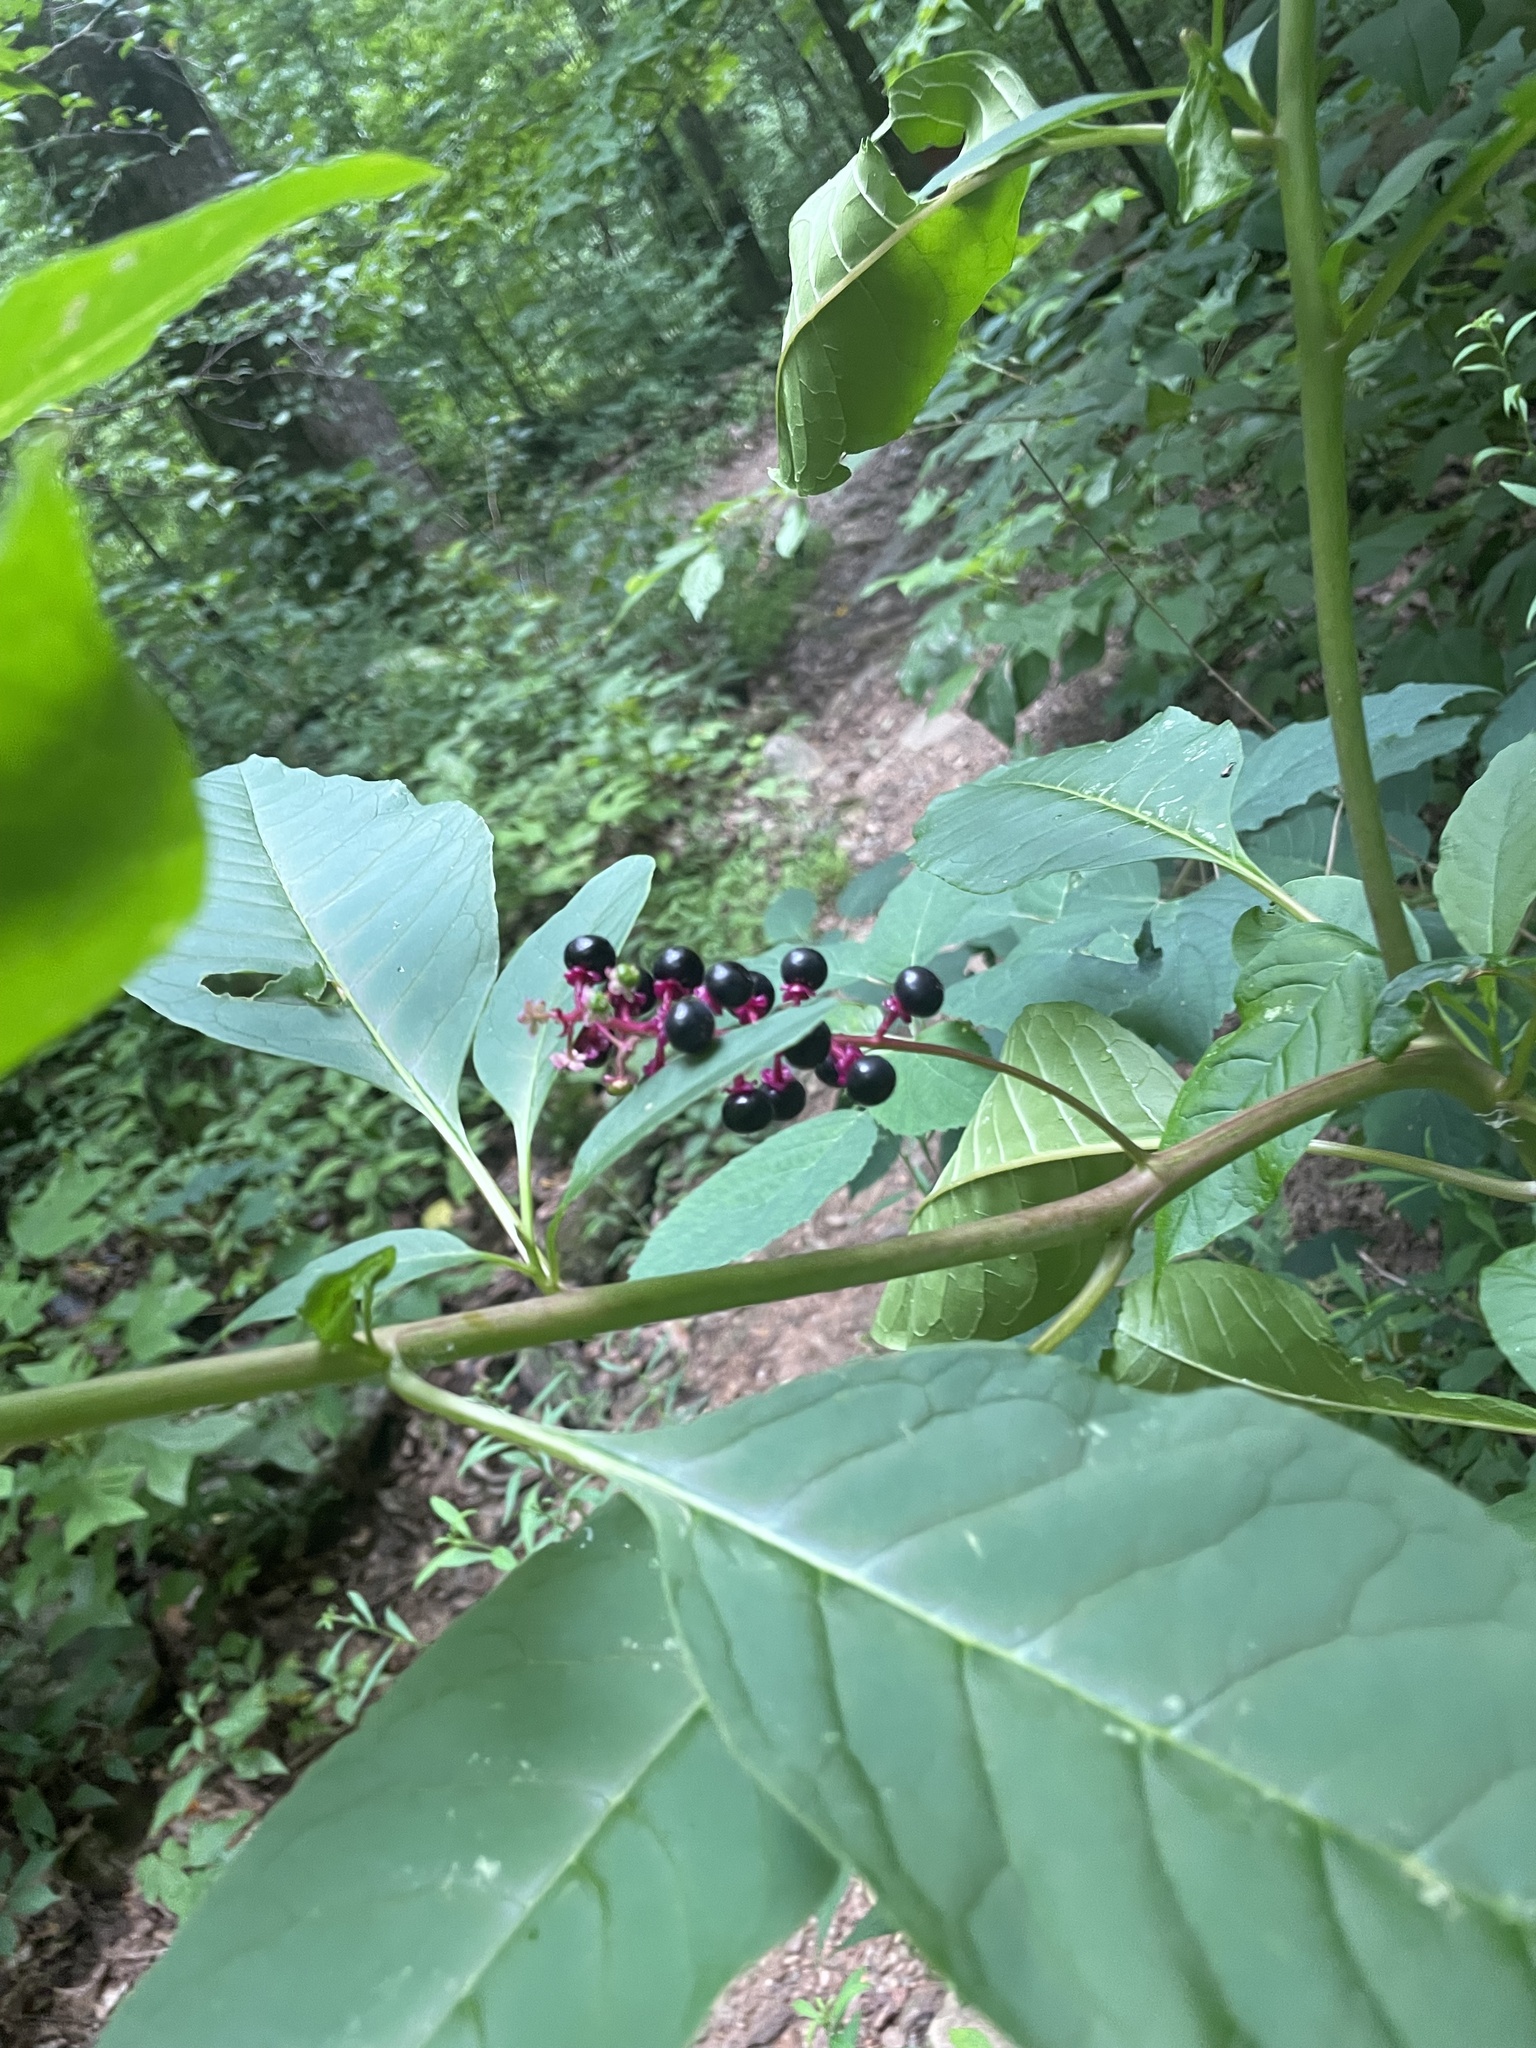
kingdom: Plantae
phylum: Tracheophyta
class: Magnoliopsida
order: Caryophyllales
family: Phytolaccaceae
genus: Phytolacca
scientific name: Phytolacca americana
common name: American pokeweed
